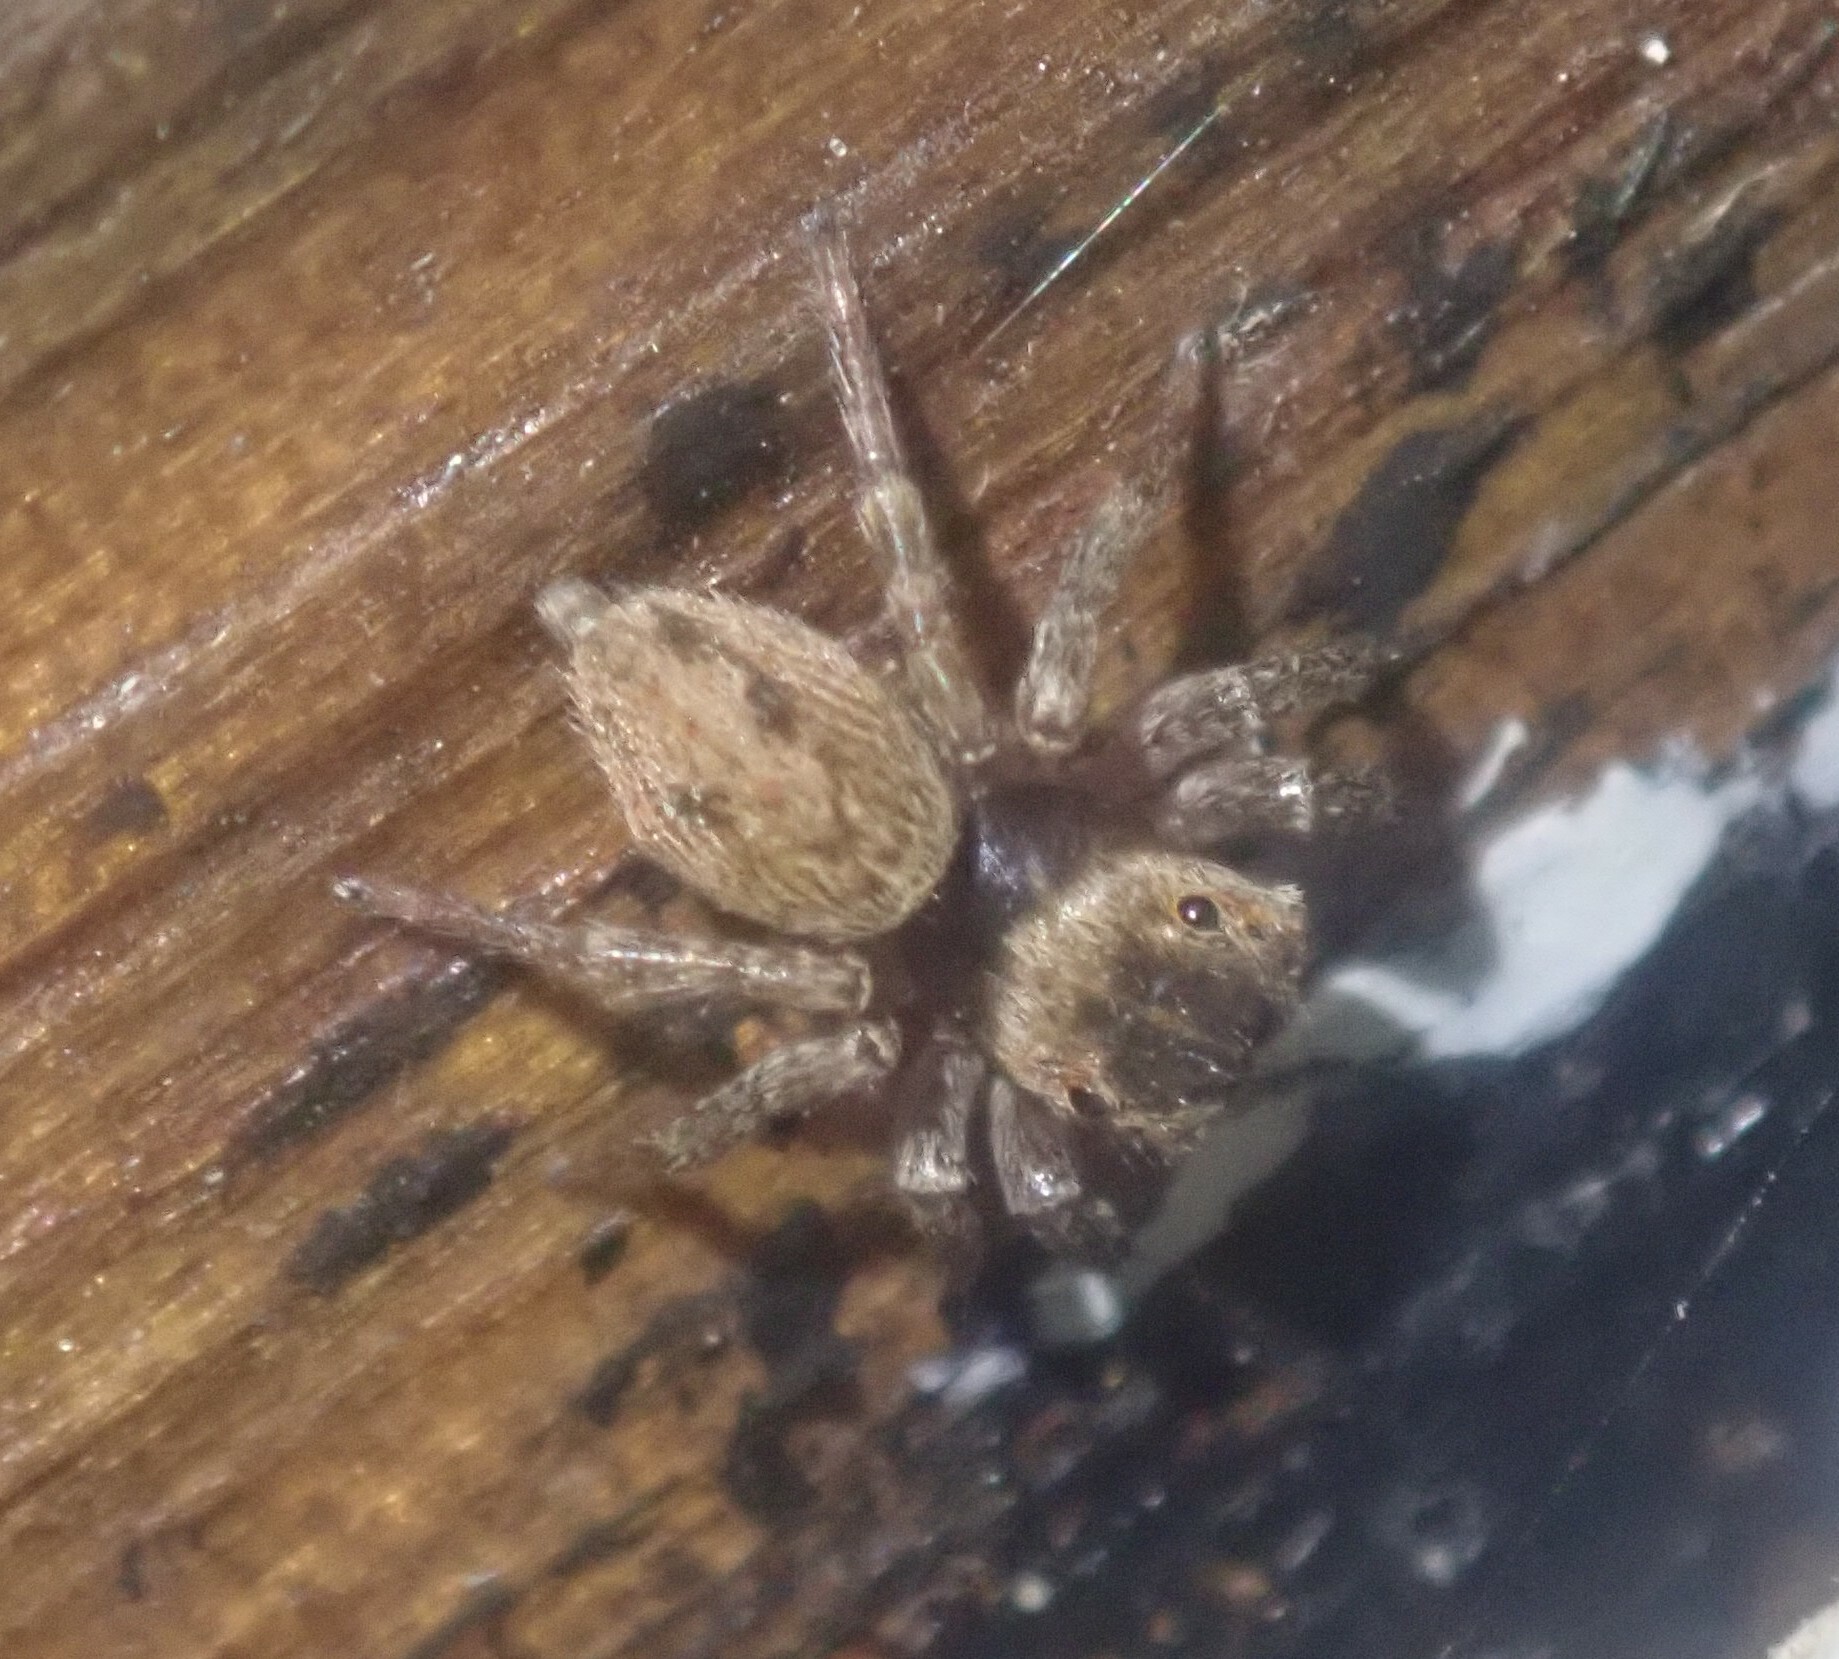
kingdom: Animalia
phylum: Arthropoda
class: Arachnida
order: Araneae
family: Salticidae
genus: Hasarius
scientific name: Hasarius adansoni
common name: Jumping spider
